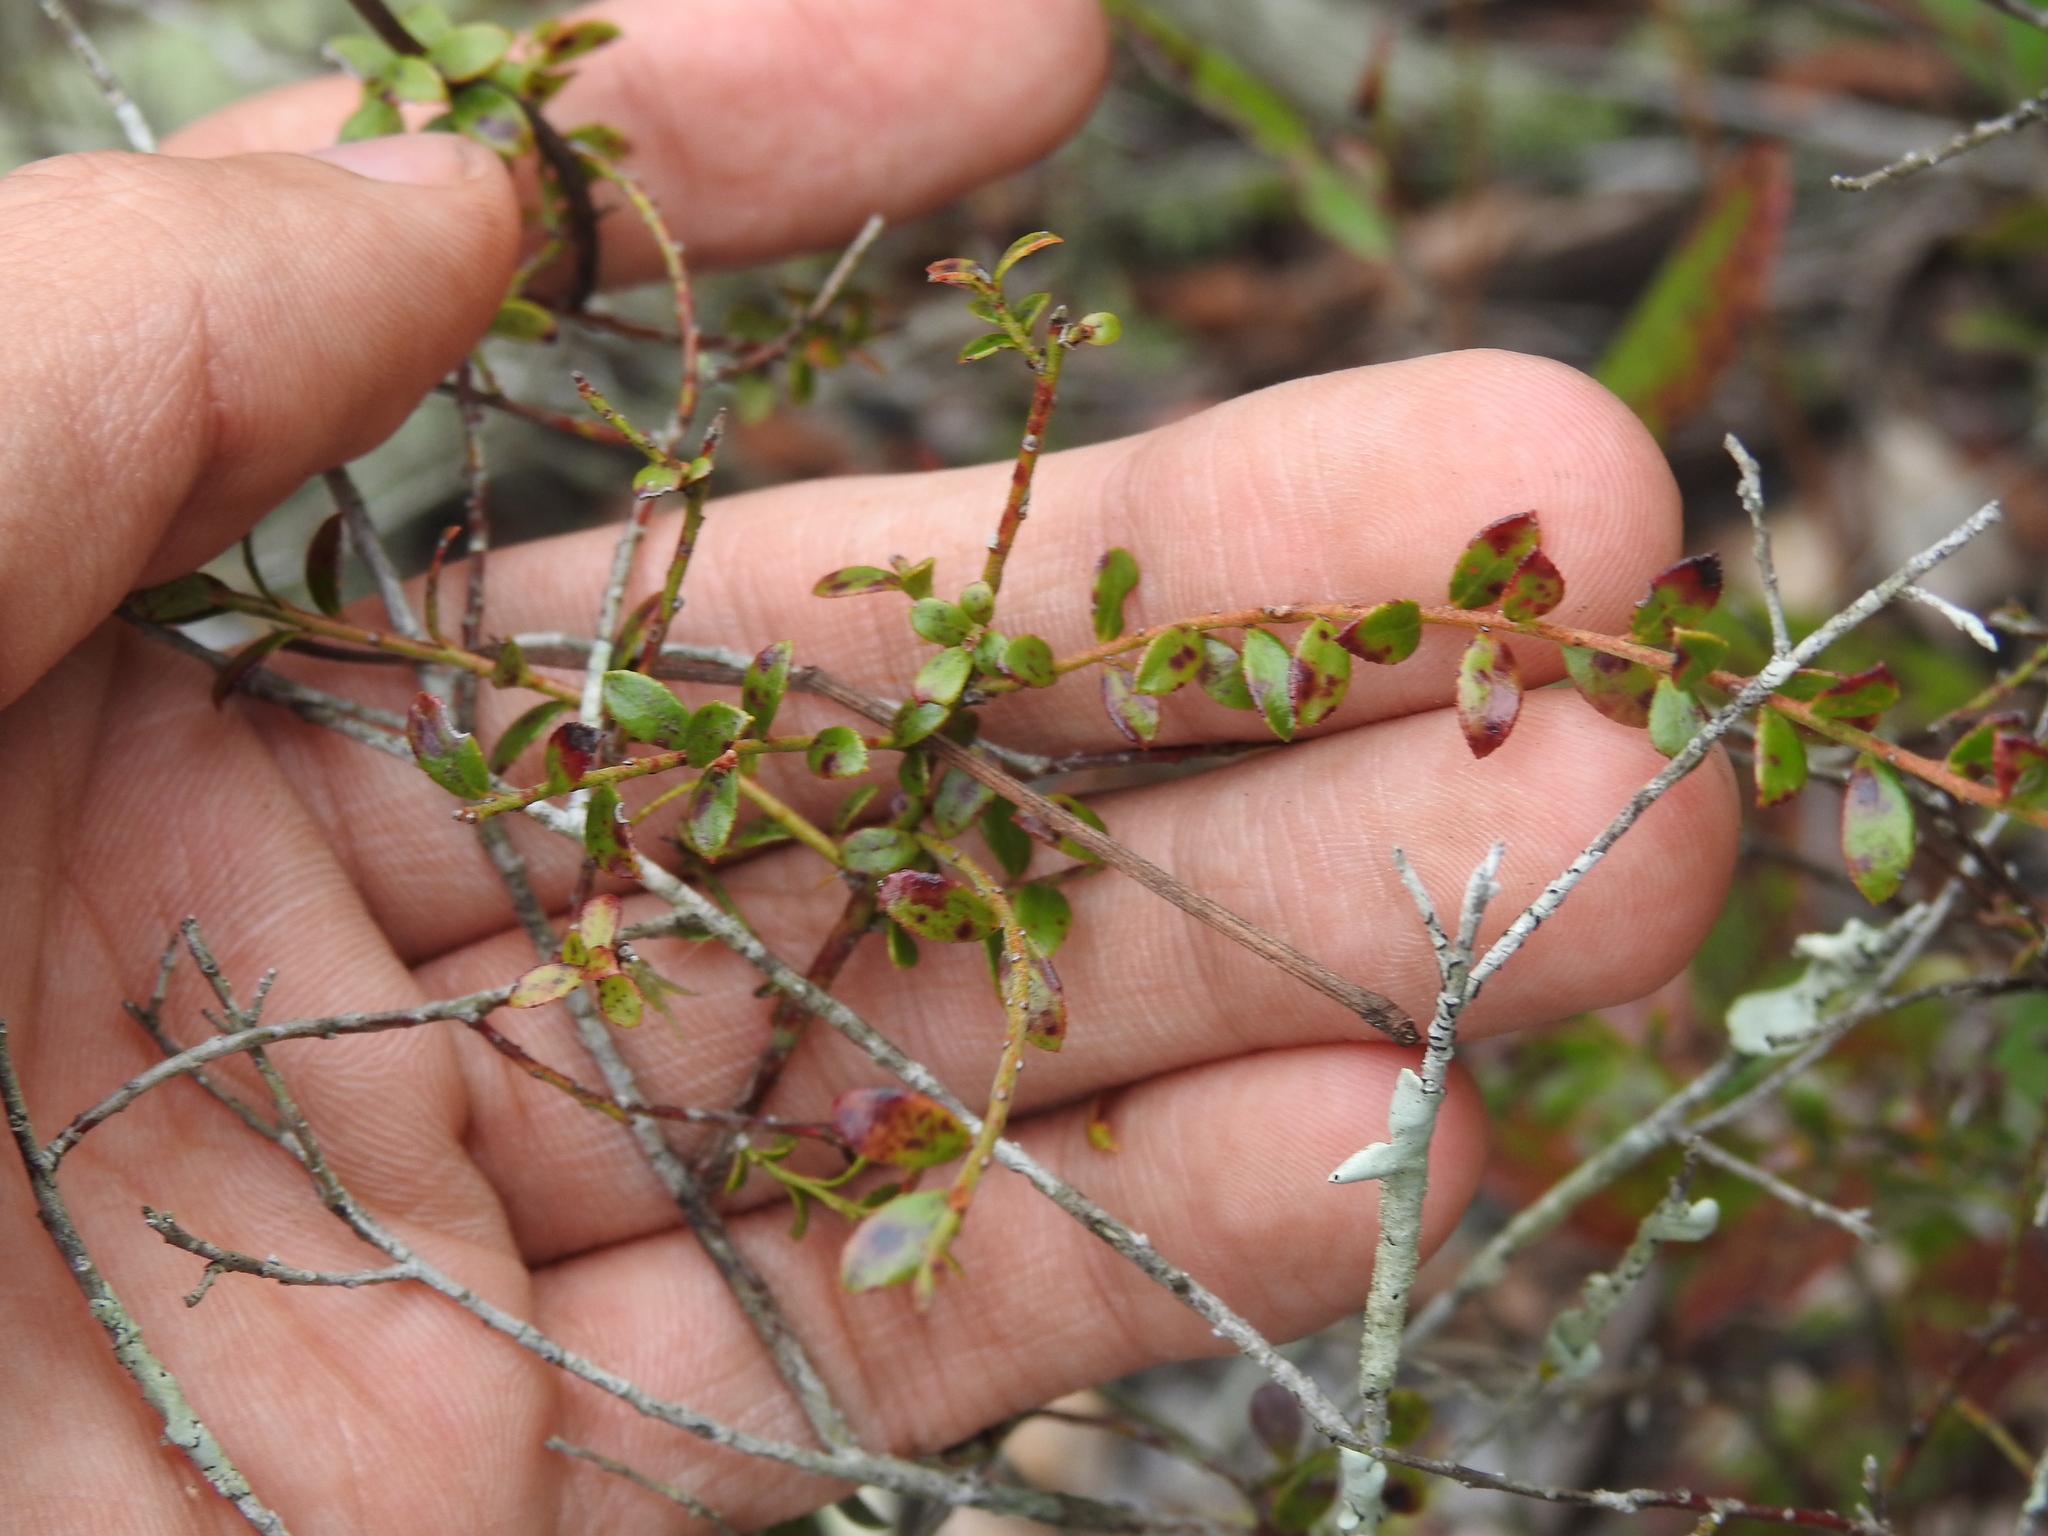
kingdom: Plantae
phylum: Tracheophyta
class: Magnoliopsida
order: Ericales
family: Ericaceae
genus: Vaccinium
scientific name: Vaccinium myrsinites
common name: Evergreen blueberry
